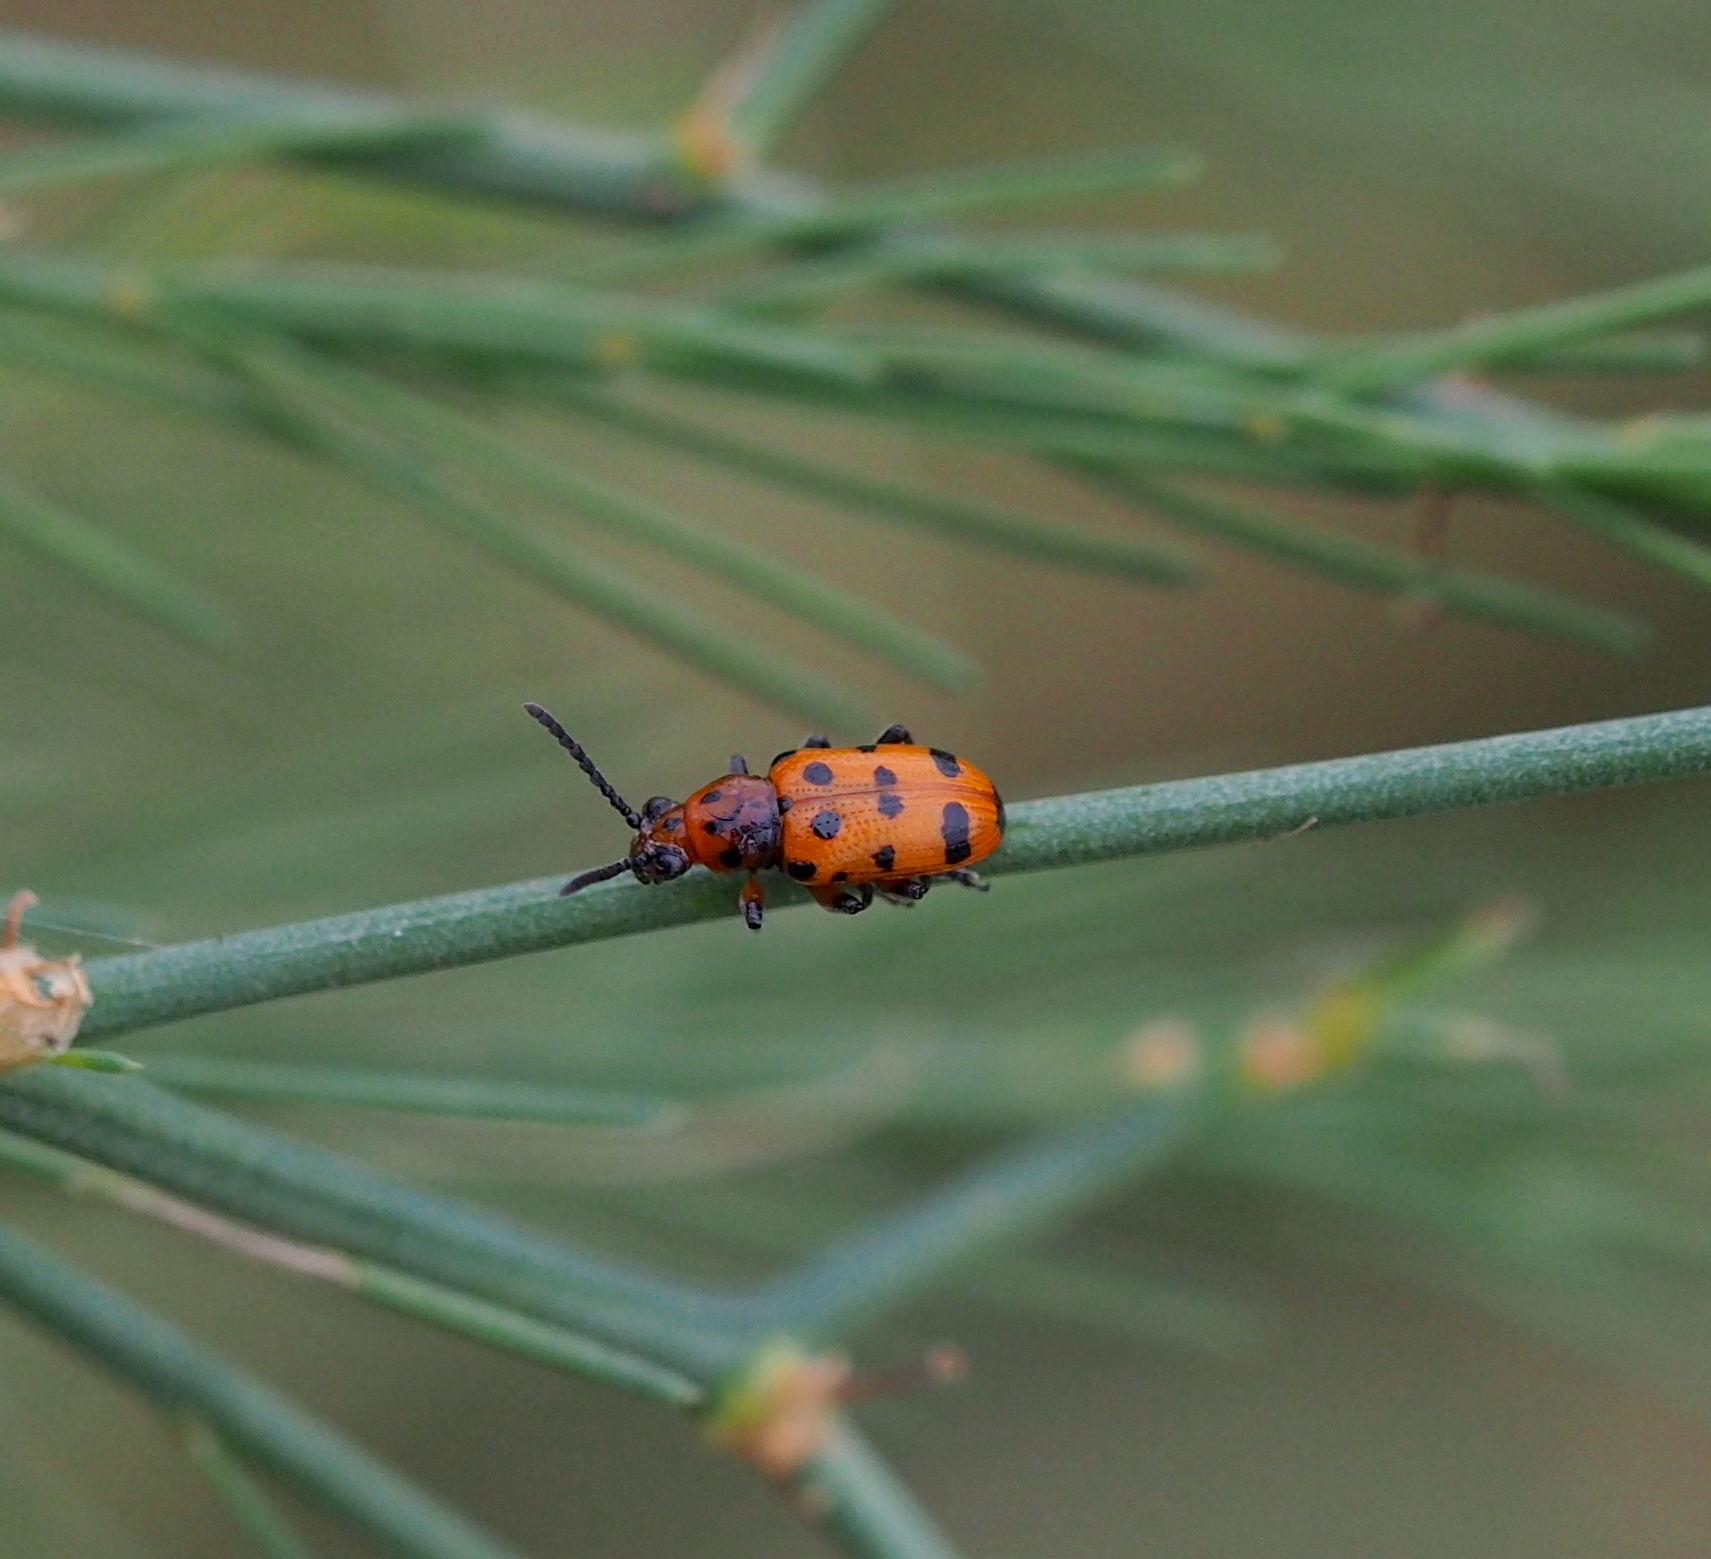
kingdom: Animalia
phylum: Arthropoda
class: Insecta
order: Coleoptera
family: Chrysomelidae
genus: Crioceris
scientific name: Crioceris quatuordecimpunctata
